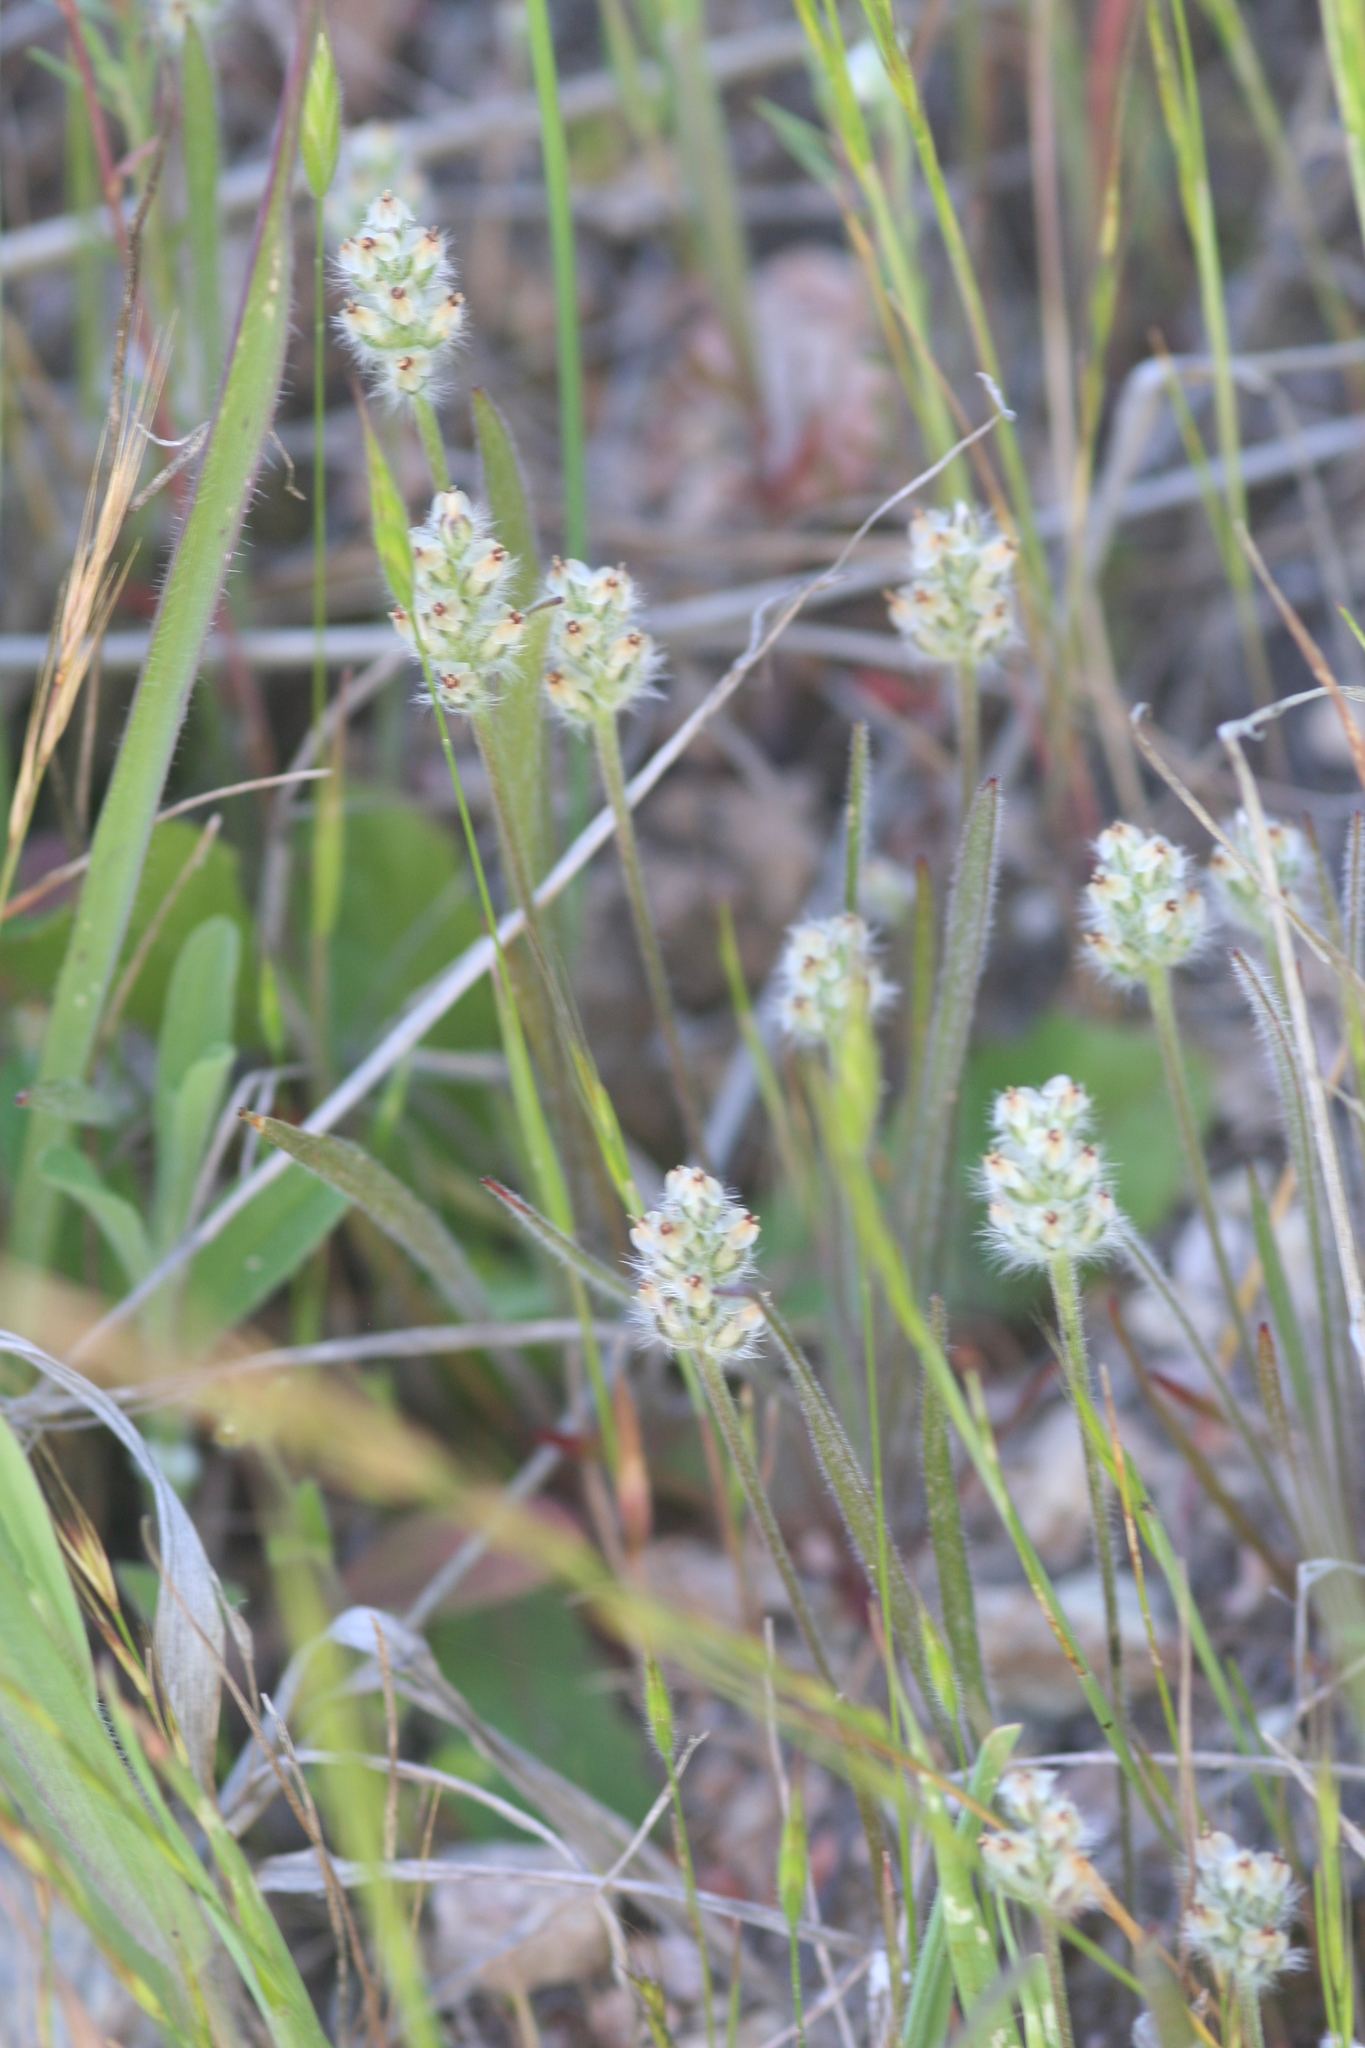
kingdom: Plantae
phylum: Tracheophyta
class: Magnoliopsida
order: Lamiales
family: Plantaginaceae
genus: Plantago
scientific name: Plantago erecta
